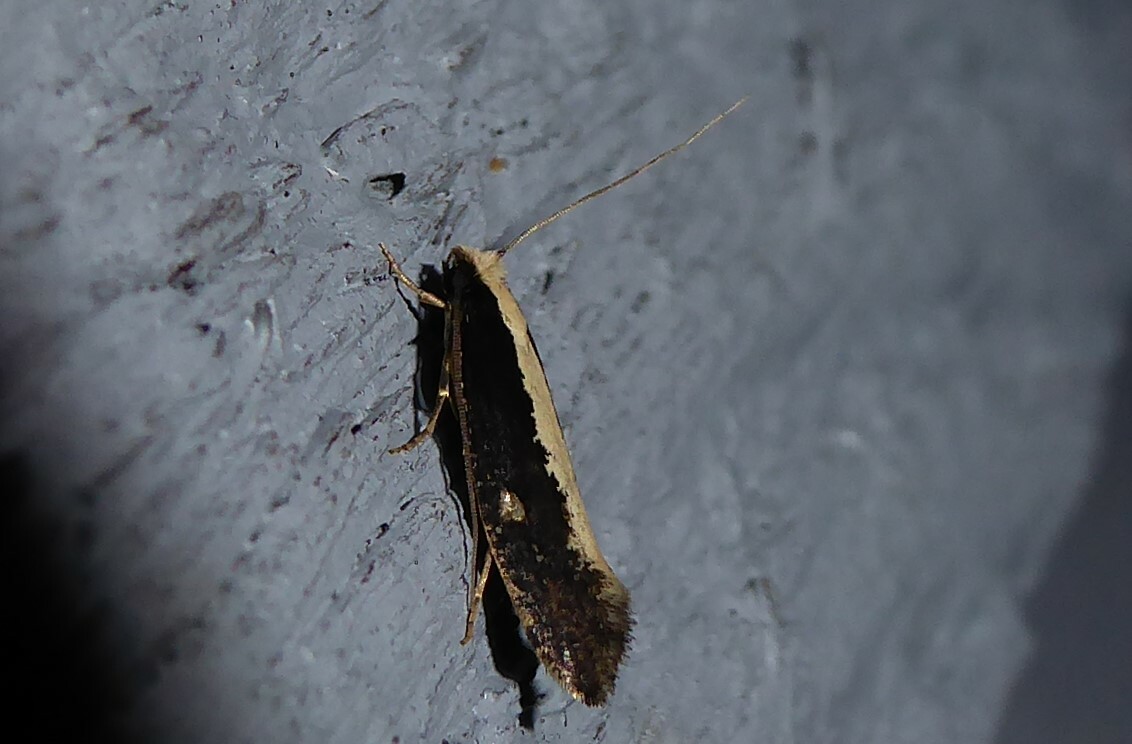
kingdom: Animalia
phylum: Arthropoda
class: Insecta
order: Lepidoptera
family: Tineidae
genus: Monopis
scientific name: Monopis ethelella
